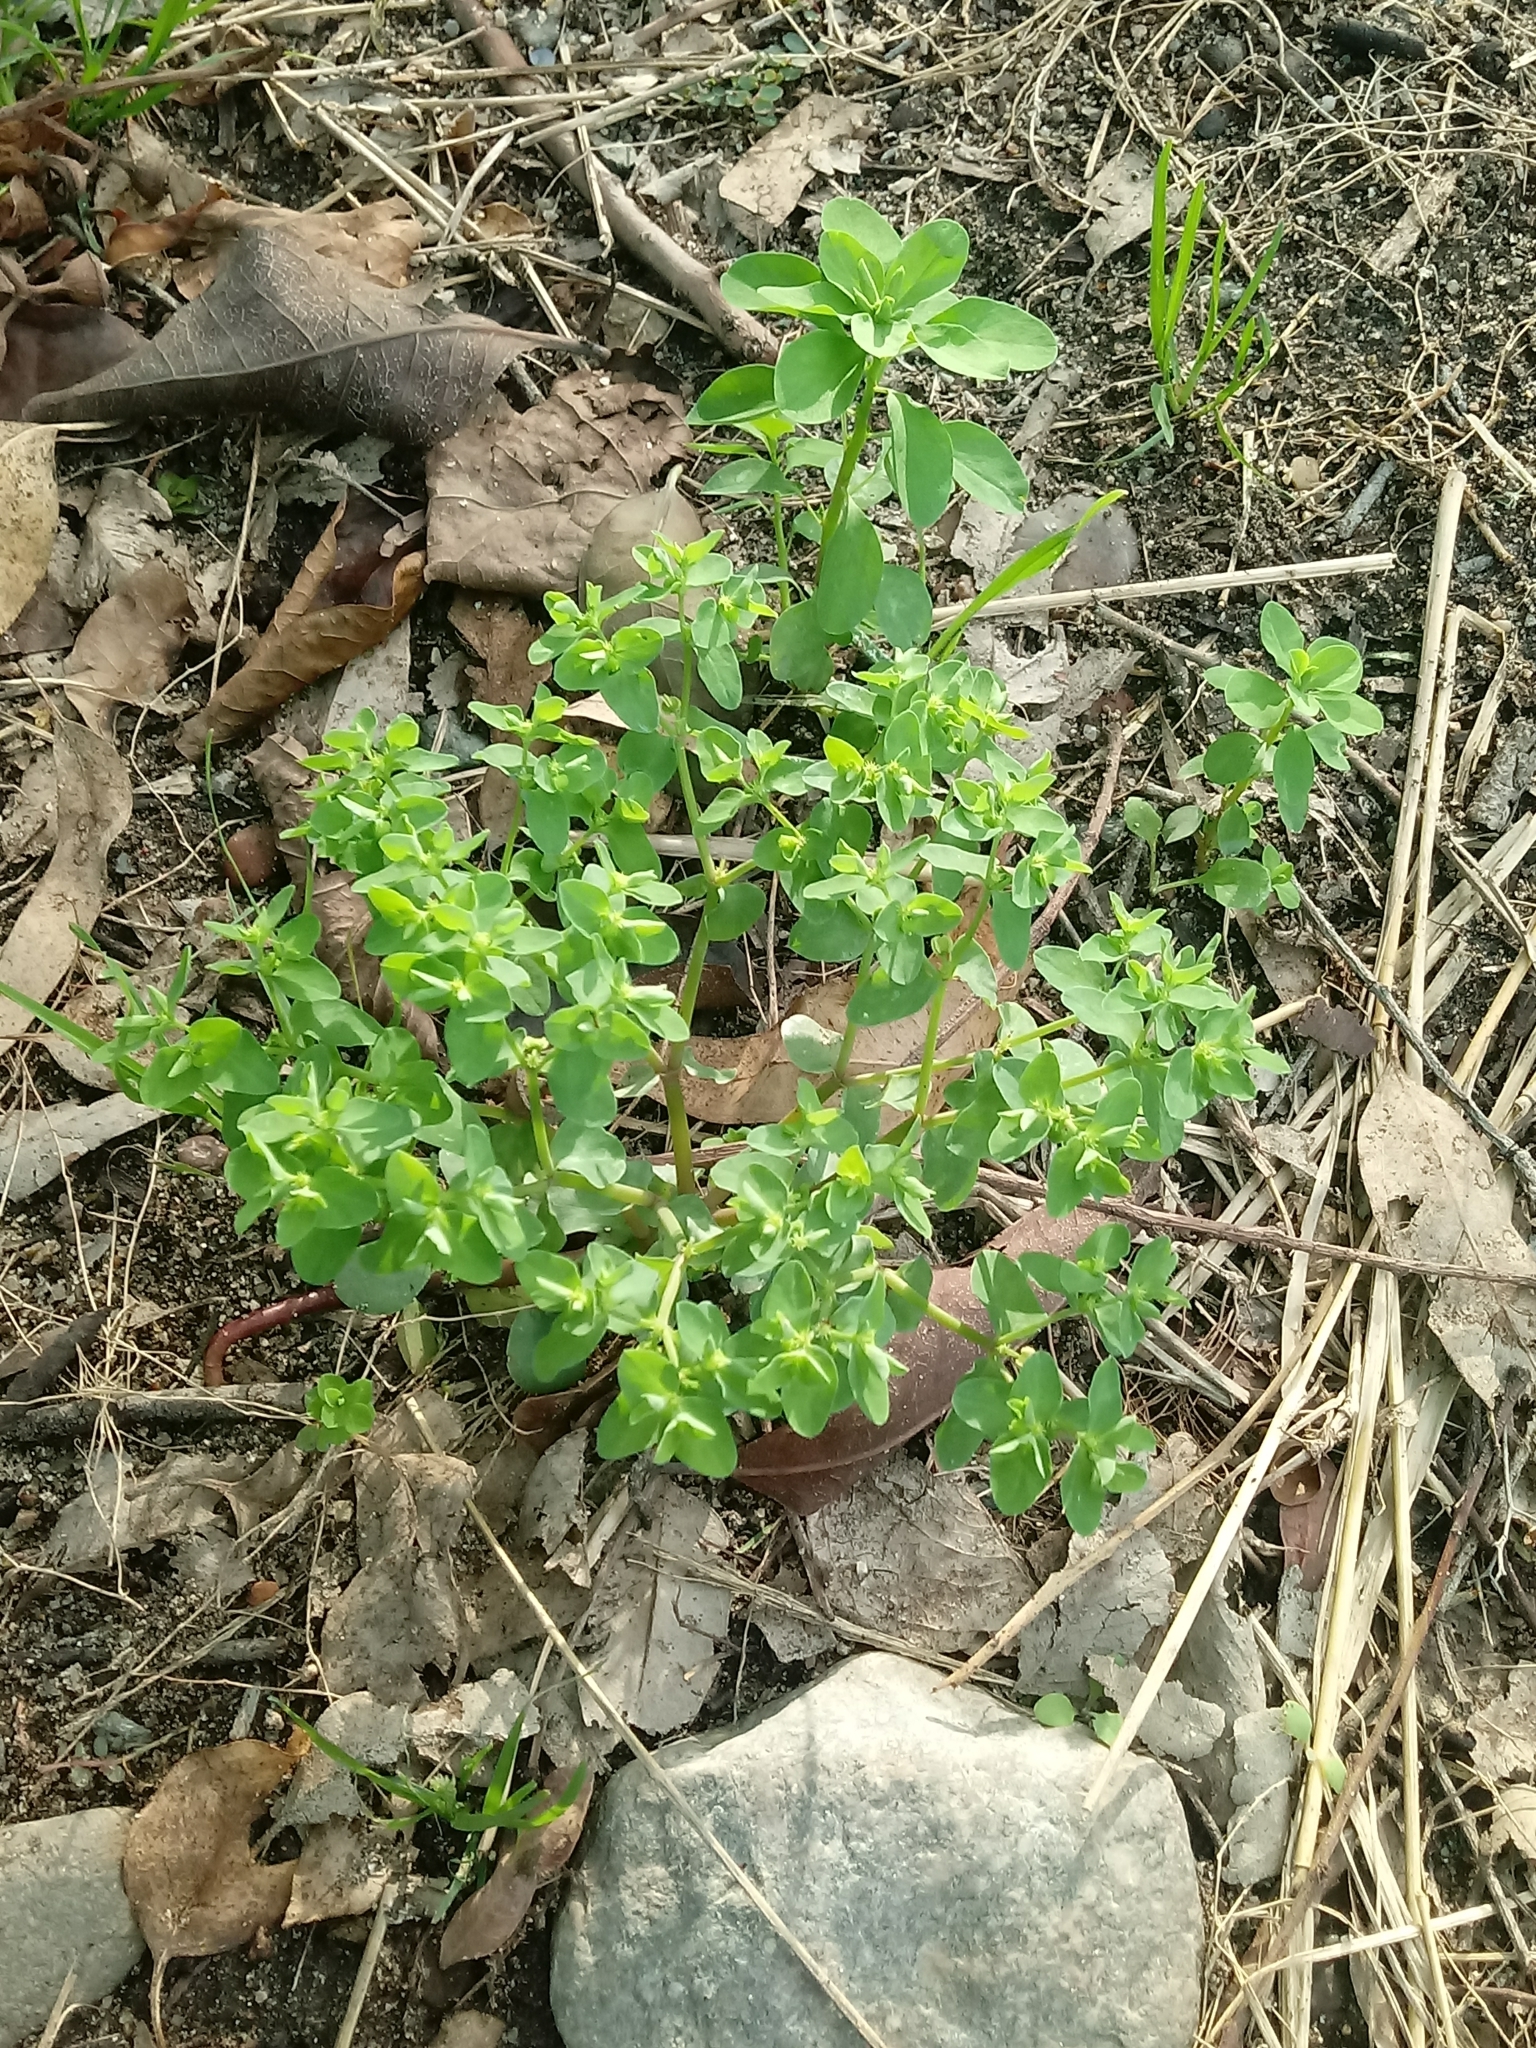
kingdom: Plantae
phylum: Tracheophyta
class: Magnoliopsida
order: Malpighiales
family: Euphorbiaceae
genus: Euphorbia
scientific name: Euphorbia peplus
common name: Petty spurge
